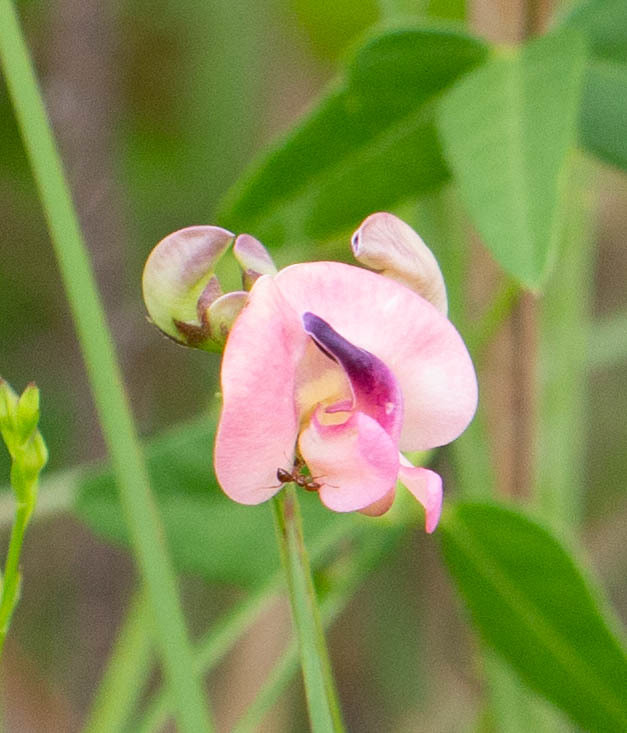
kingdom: Plantae
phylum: Tracheophyta
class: Magnoliopsida
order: Fabales
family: Fabaceae
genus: Strophostyles
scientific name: Strophostyles umbellata
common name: Perennial wild bean
